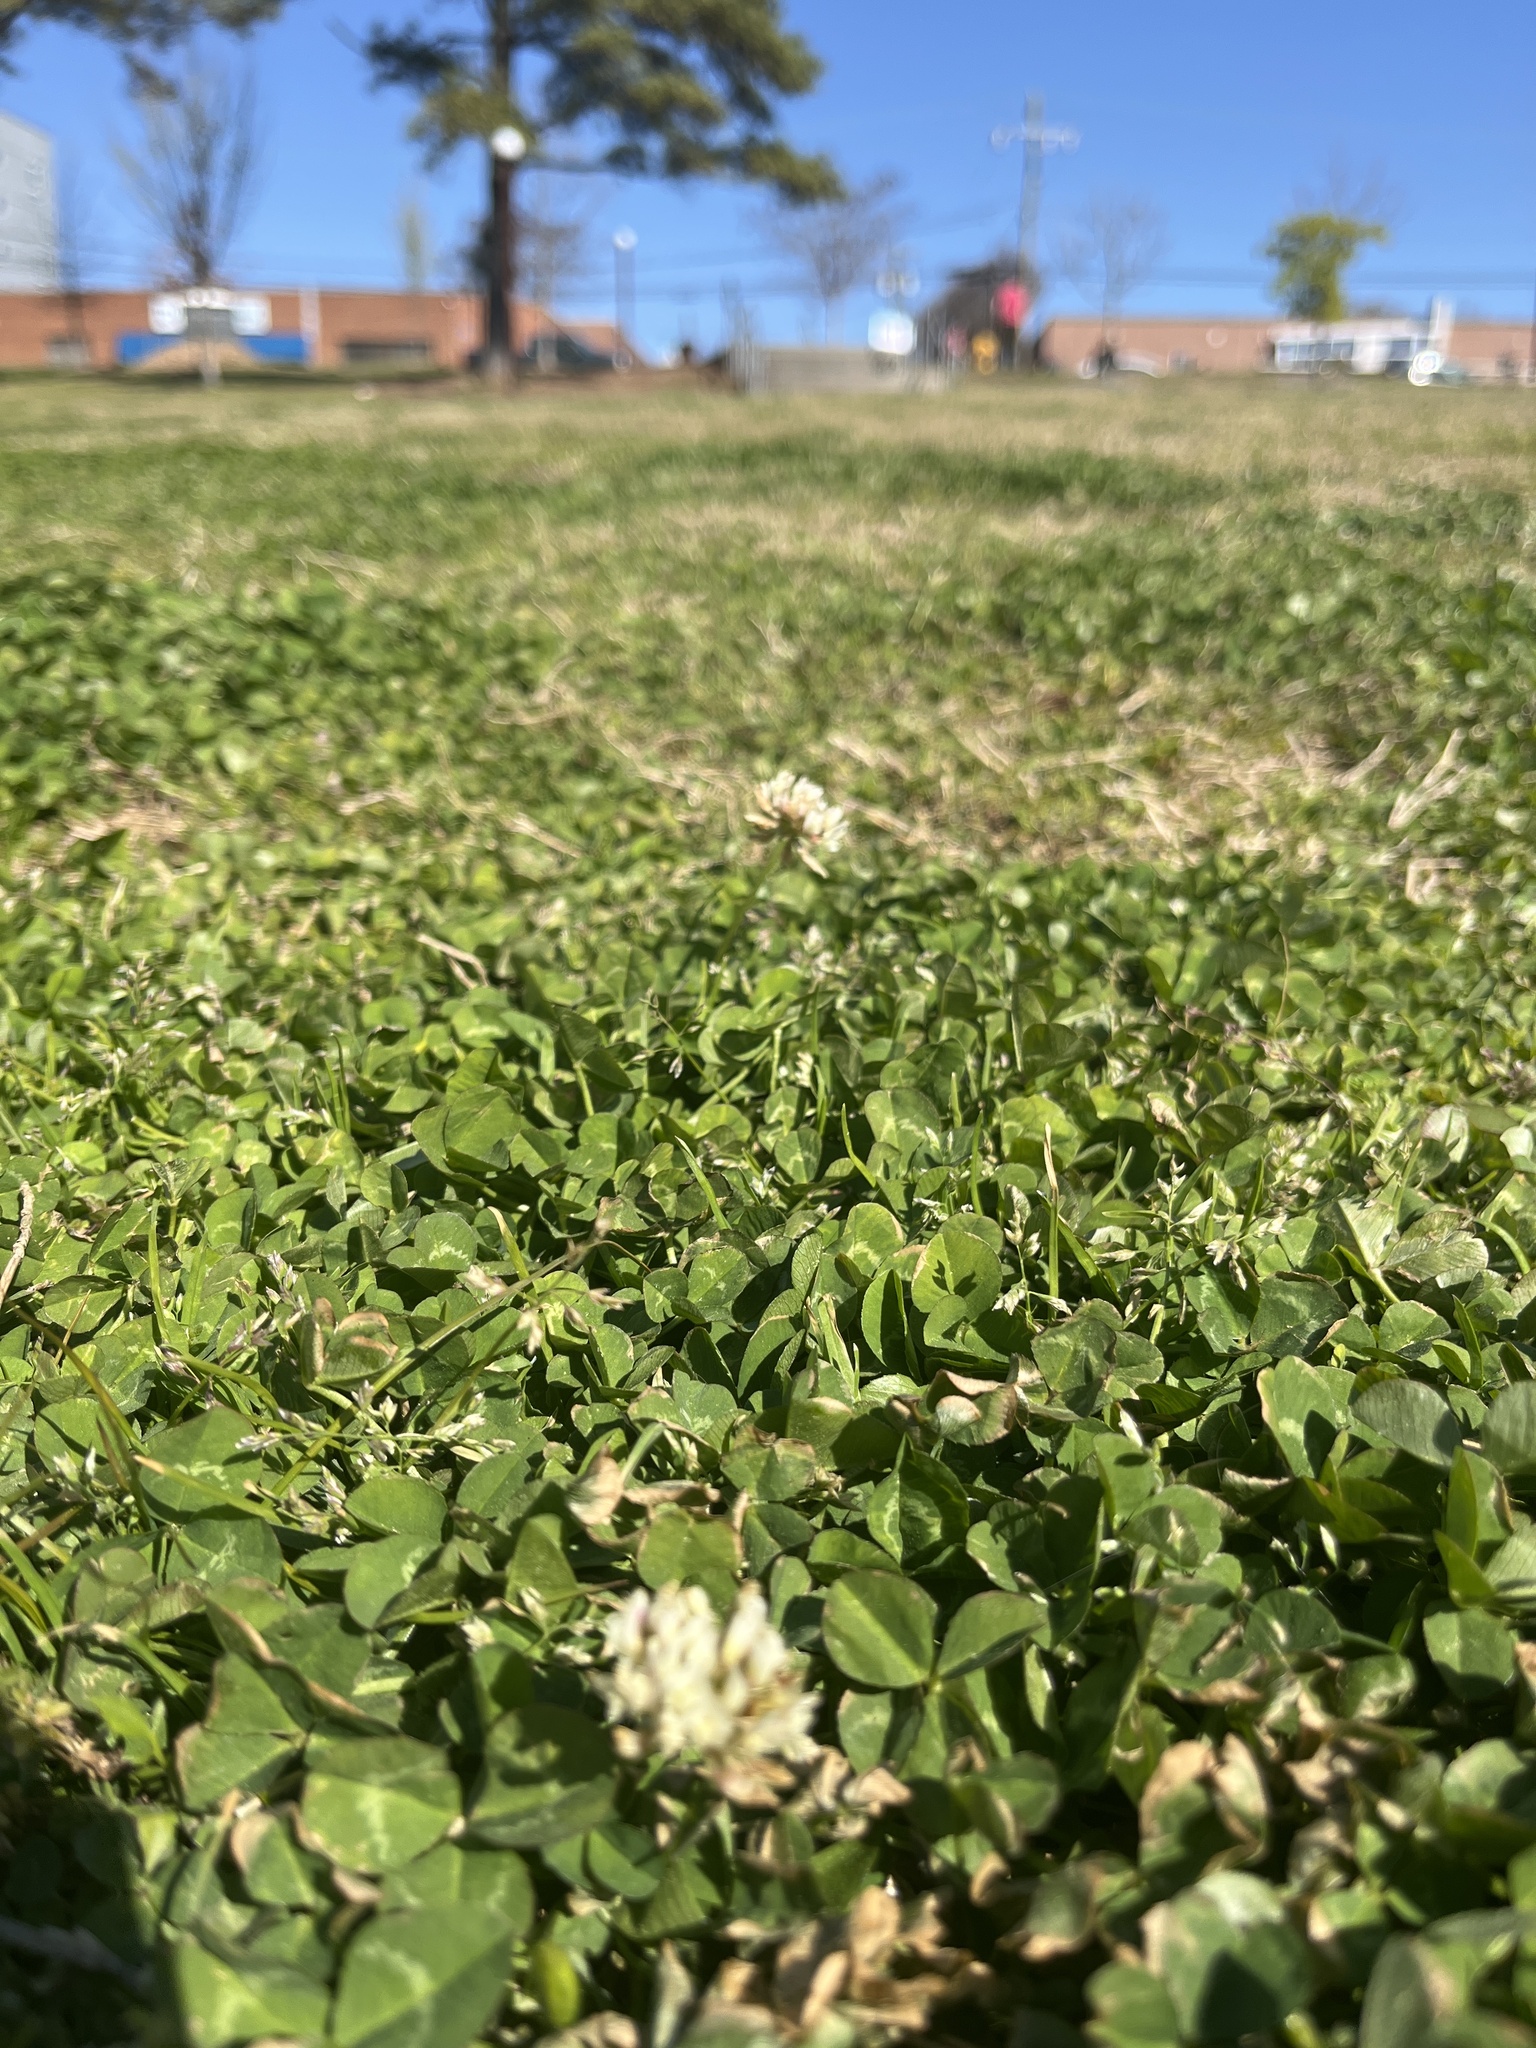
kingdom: Plantae
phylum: Tracheophyta
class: Magnoliopsida
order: Fabales
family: Fabaceae
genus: Trifolium
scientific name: Trifolium repens
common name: White clover
